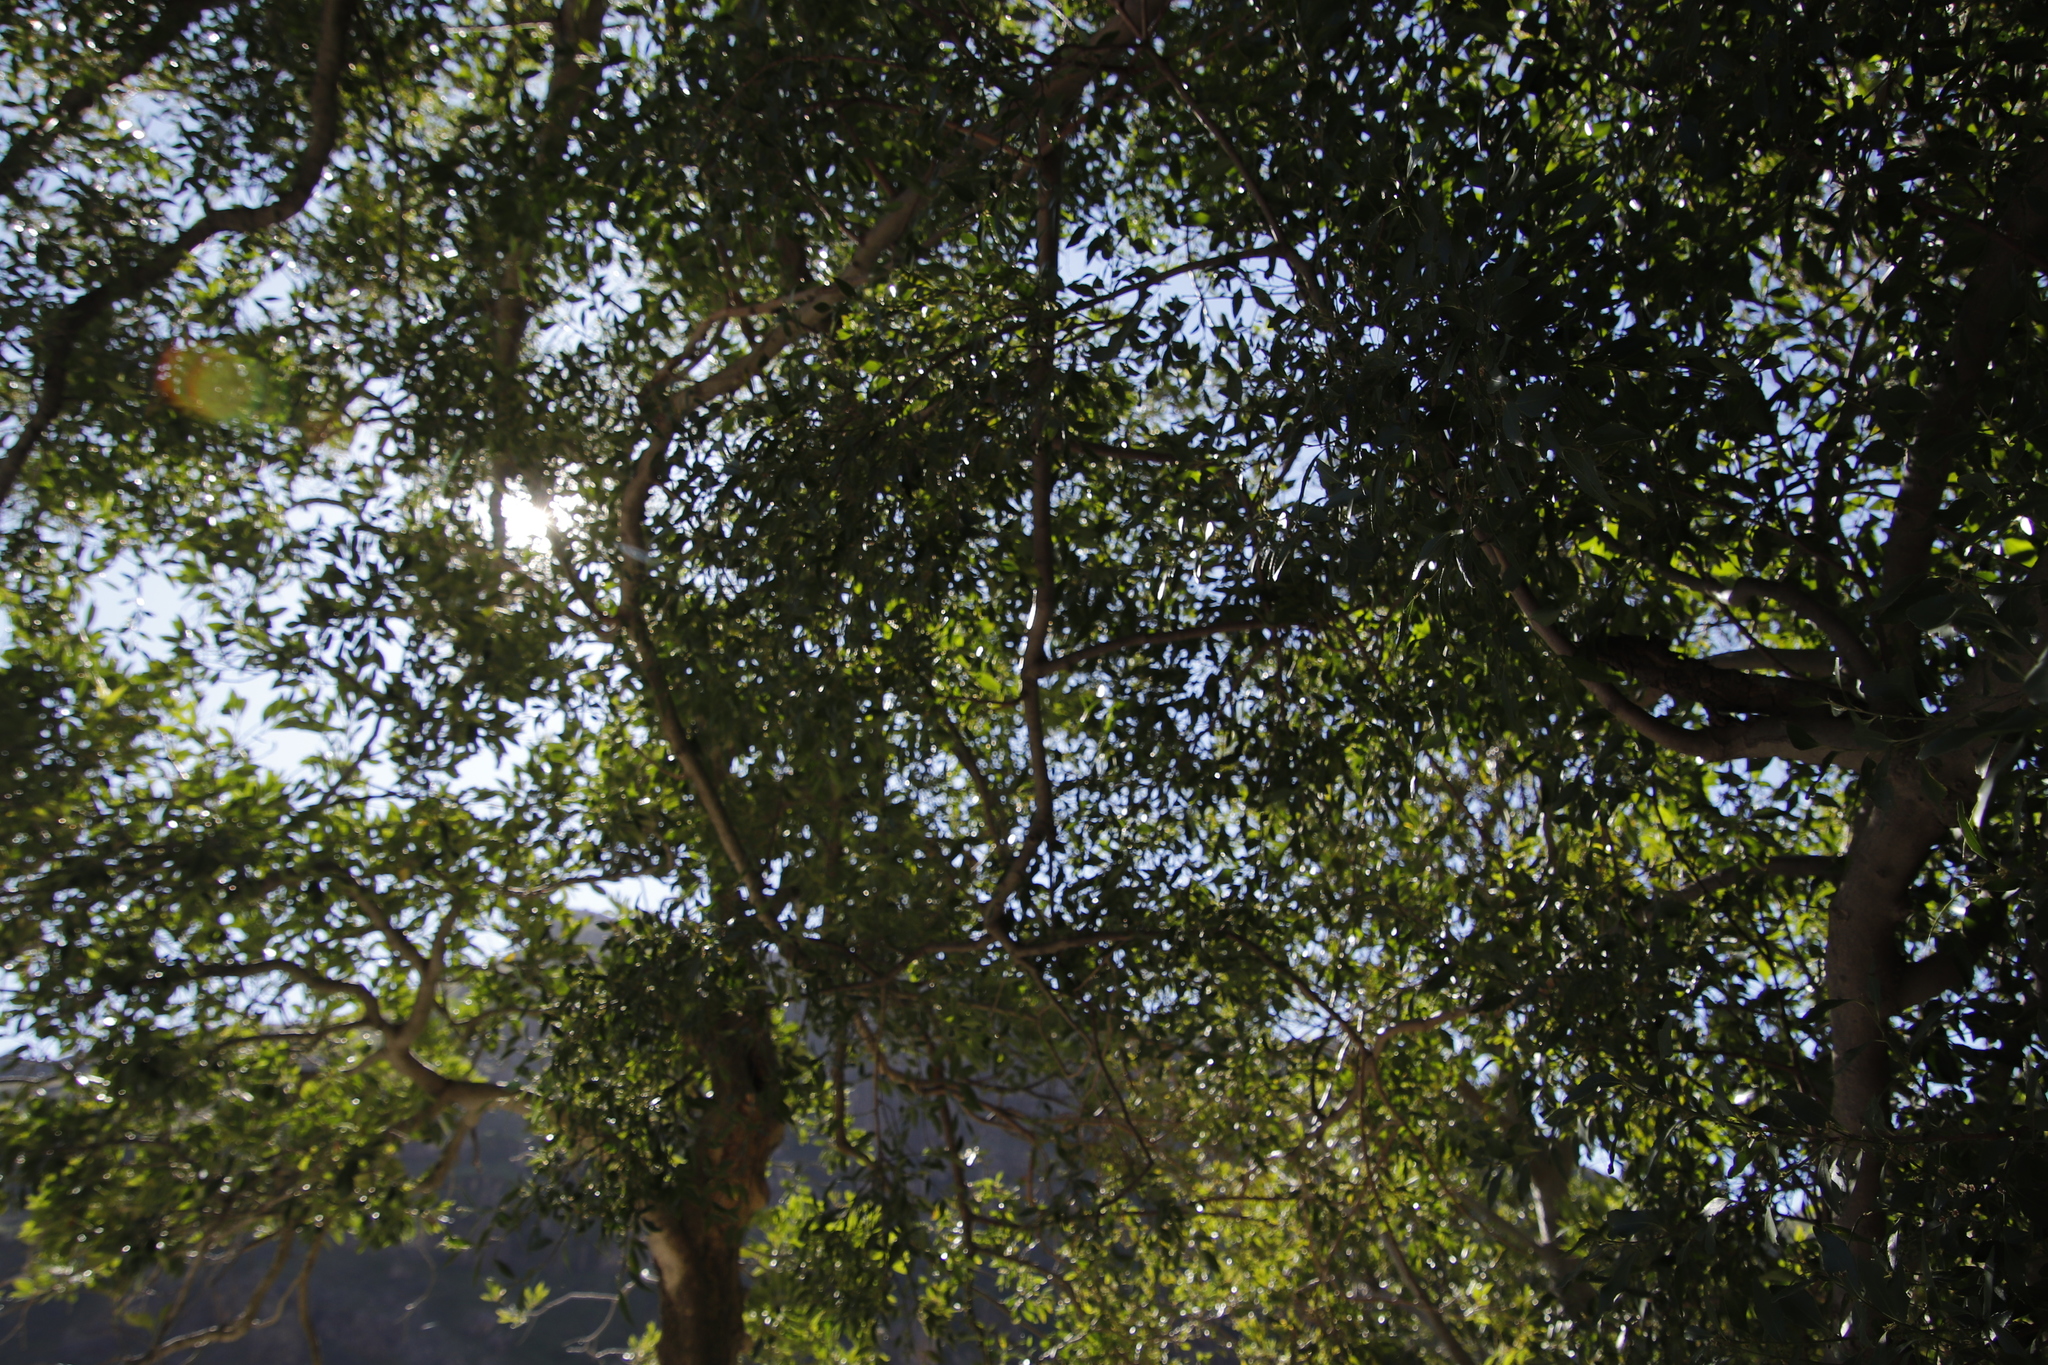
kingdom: Plantae
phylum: Tracheophyta
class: Magnoliopsida
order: Celastrales
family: Celastraceae
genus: Gymnosporia
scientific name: Gymnosporia acuminata
